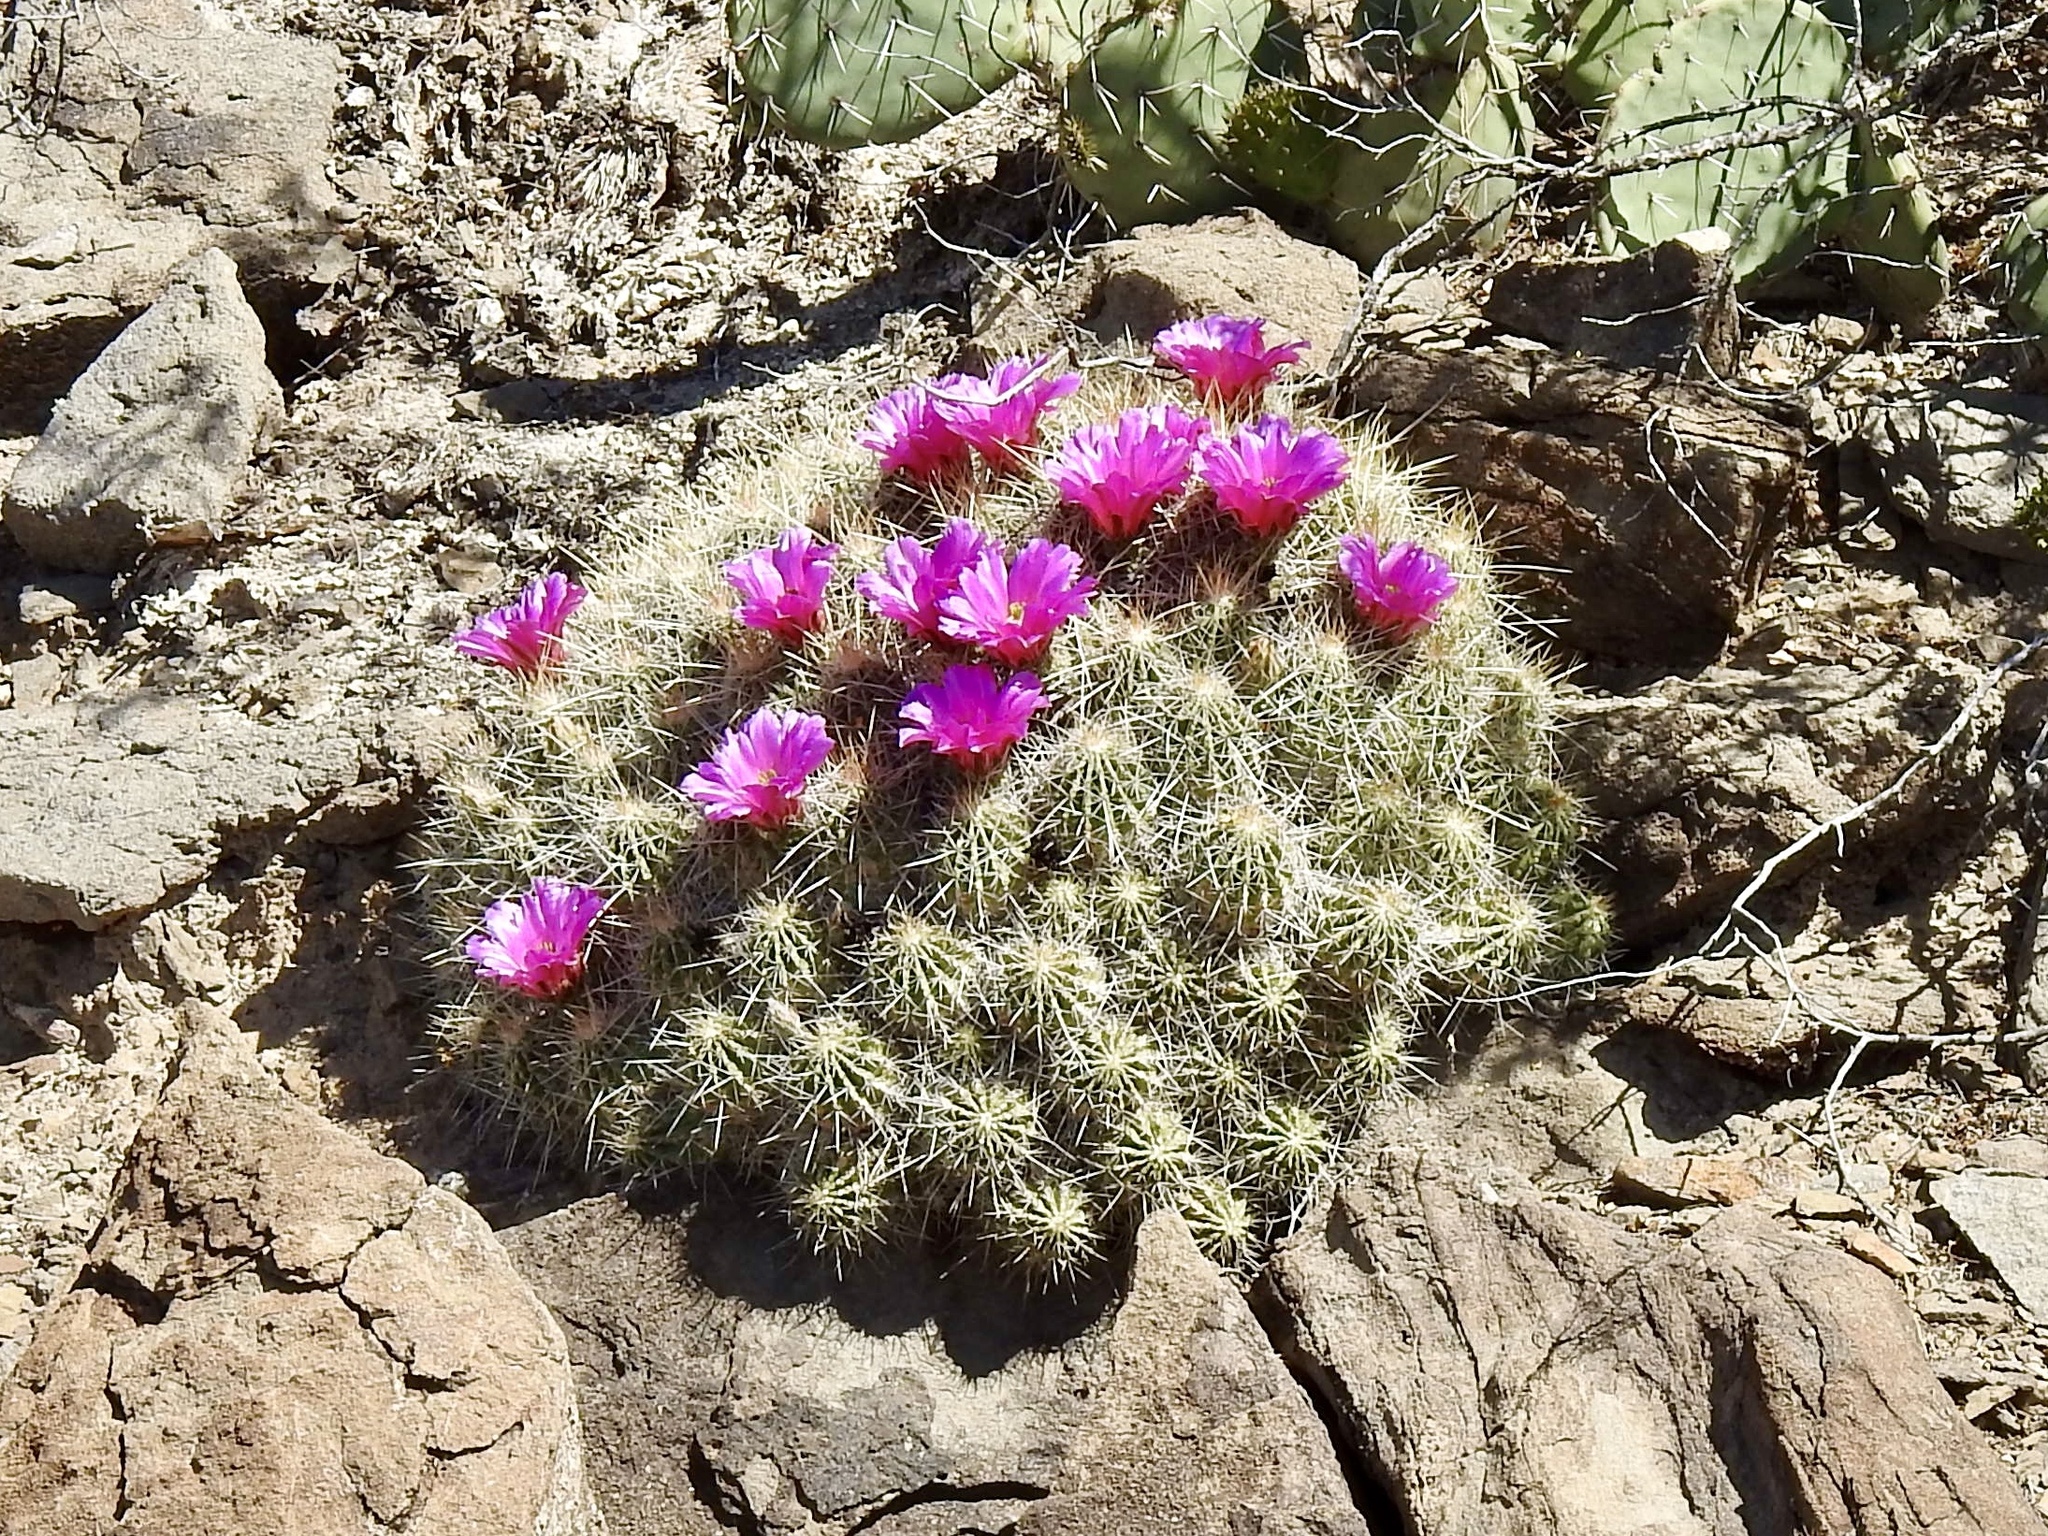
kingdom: Plantae
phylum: Tracheophyta
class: Magnoliopsida
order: Caryophyllales
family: Cactaceae
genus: Echinocereus
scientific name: Echinocereus stramineus
